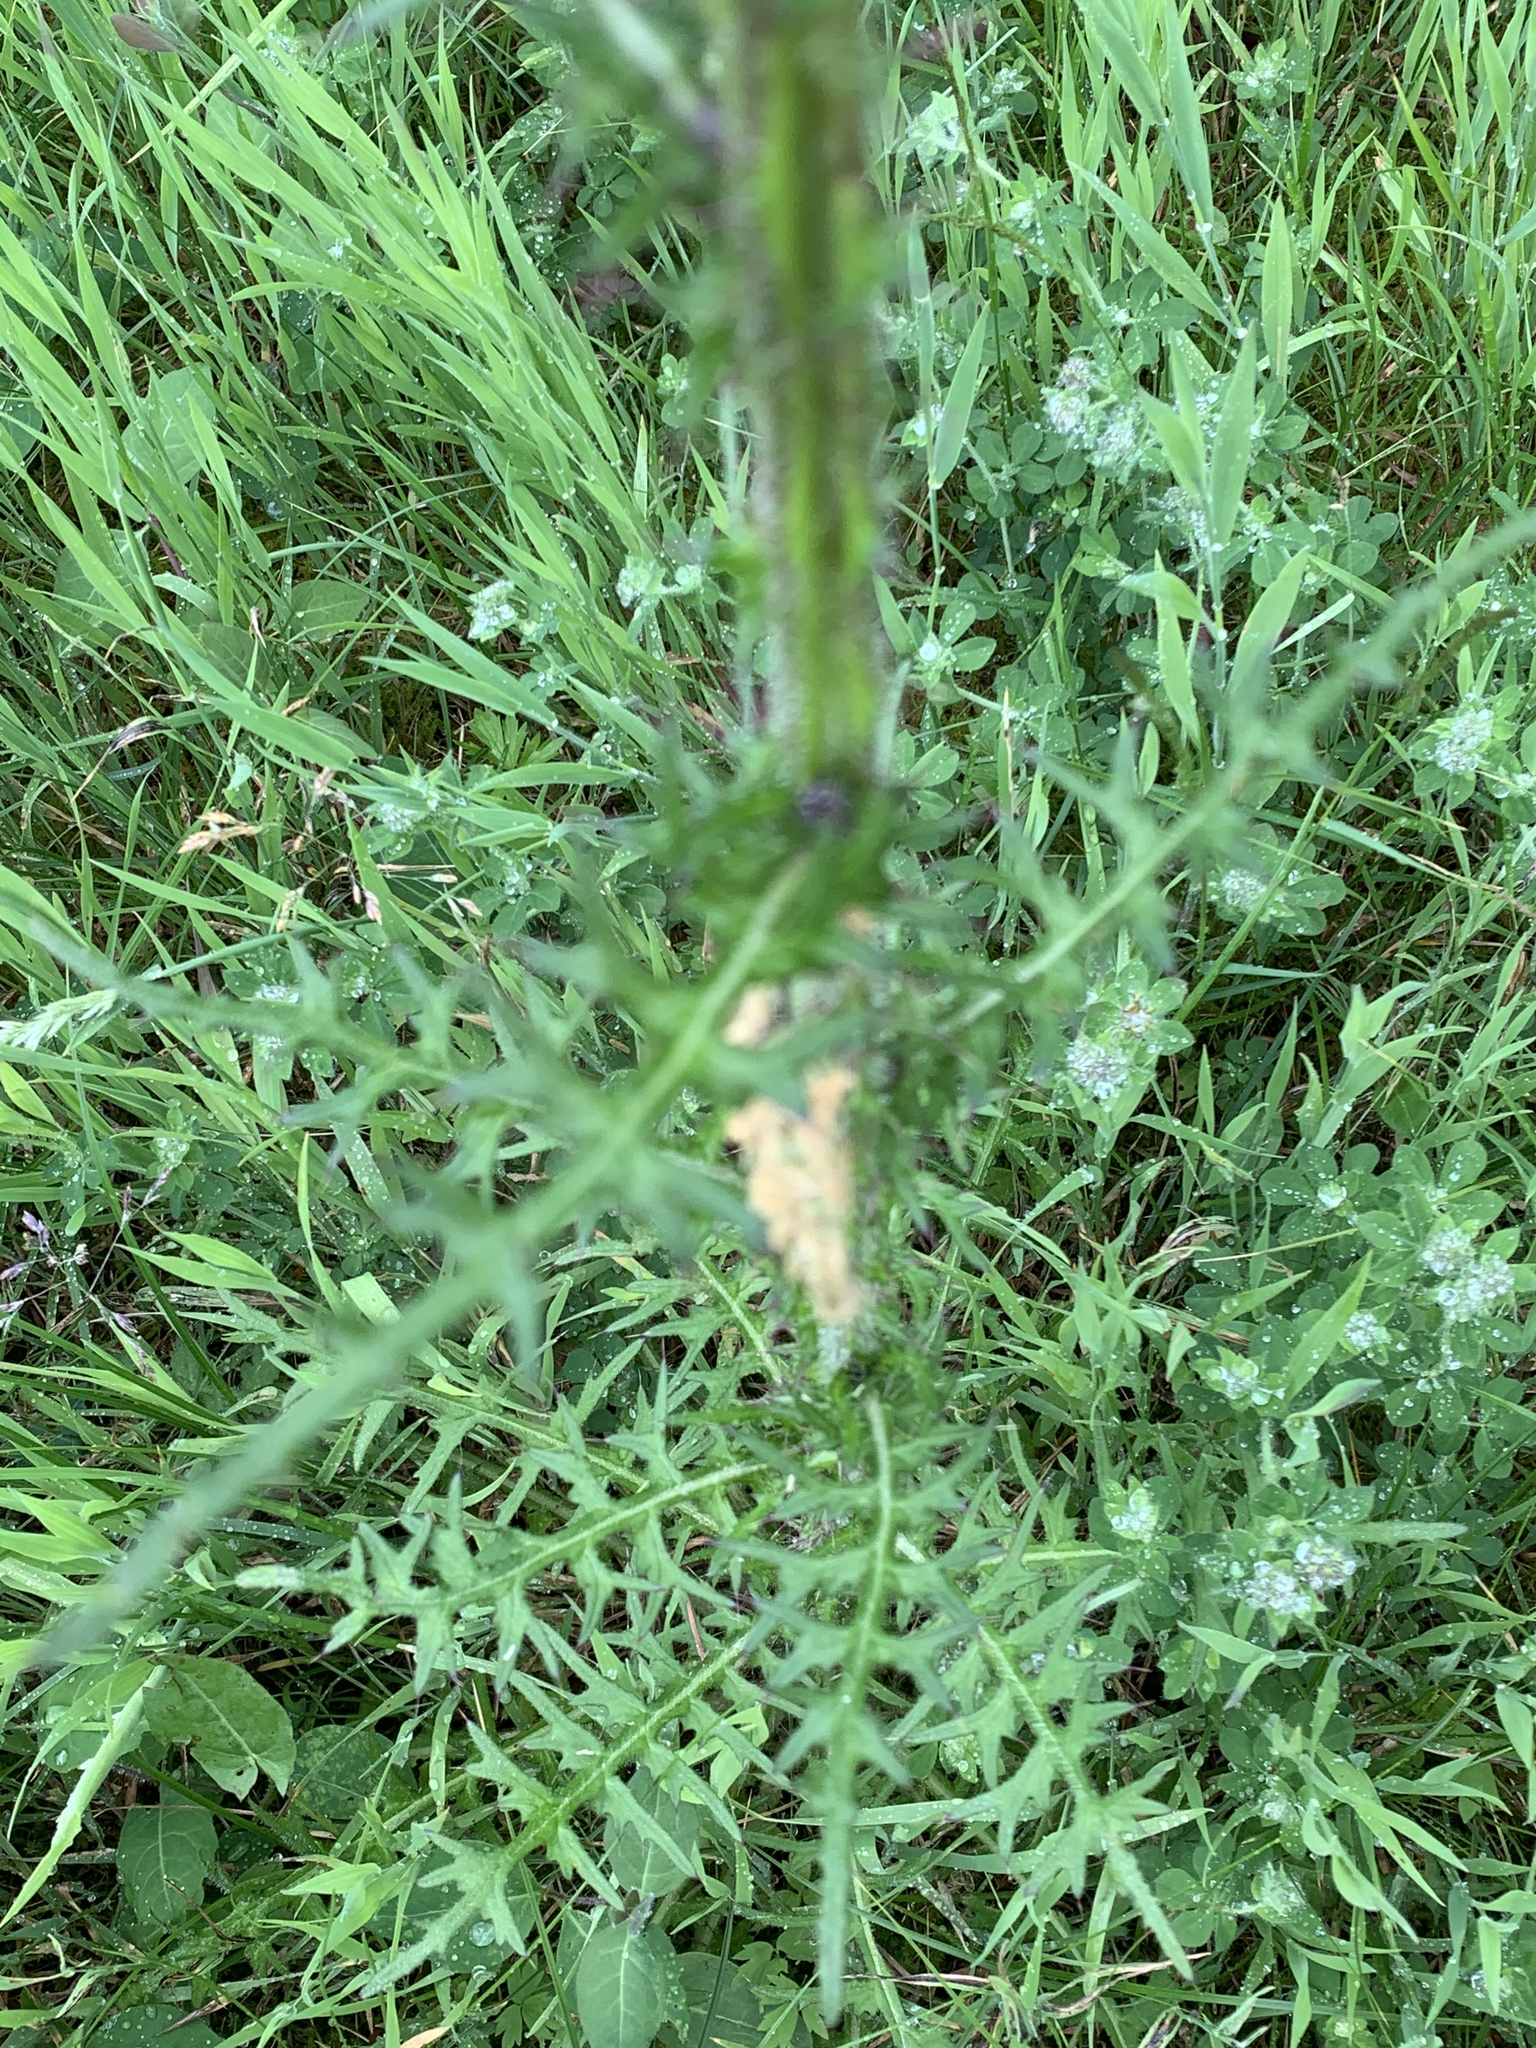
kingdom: Plantae
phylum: Tracheophyta
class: Magnoliopsida
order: Asterales
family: Asteraceae
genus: Cirsium
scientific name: Cirsium palustre
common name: Marsh thistle
